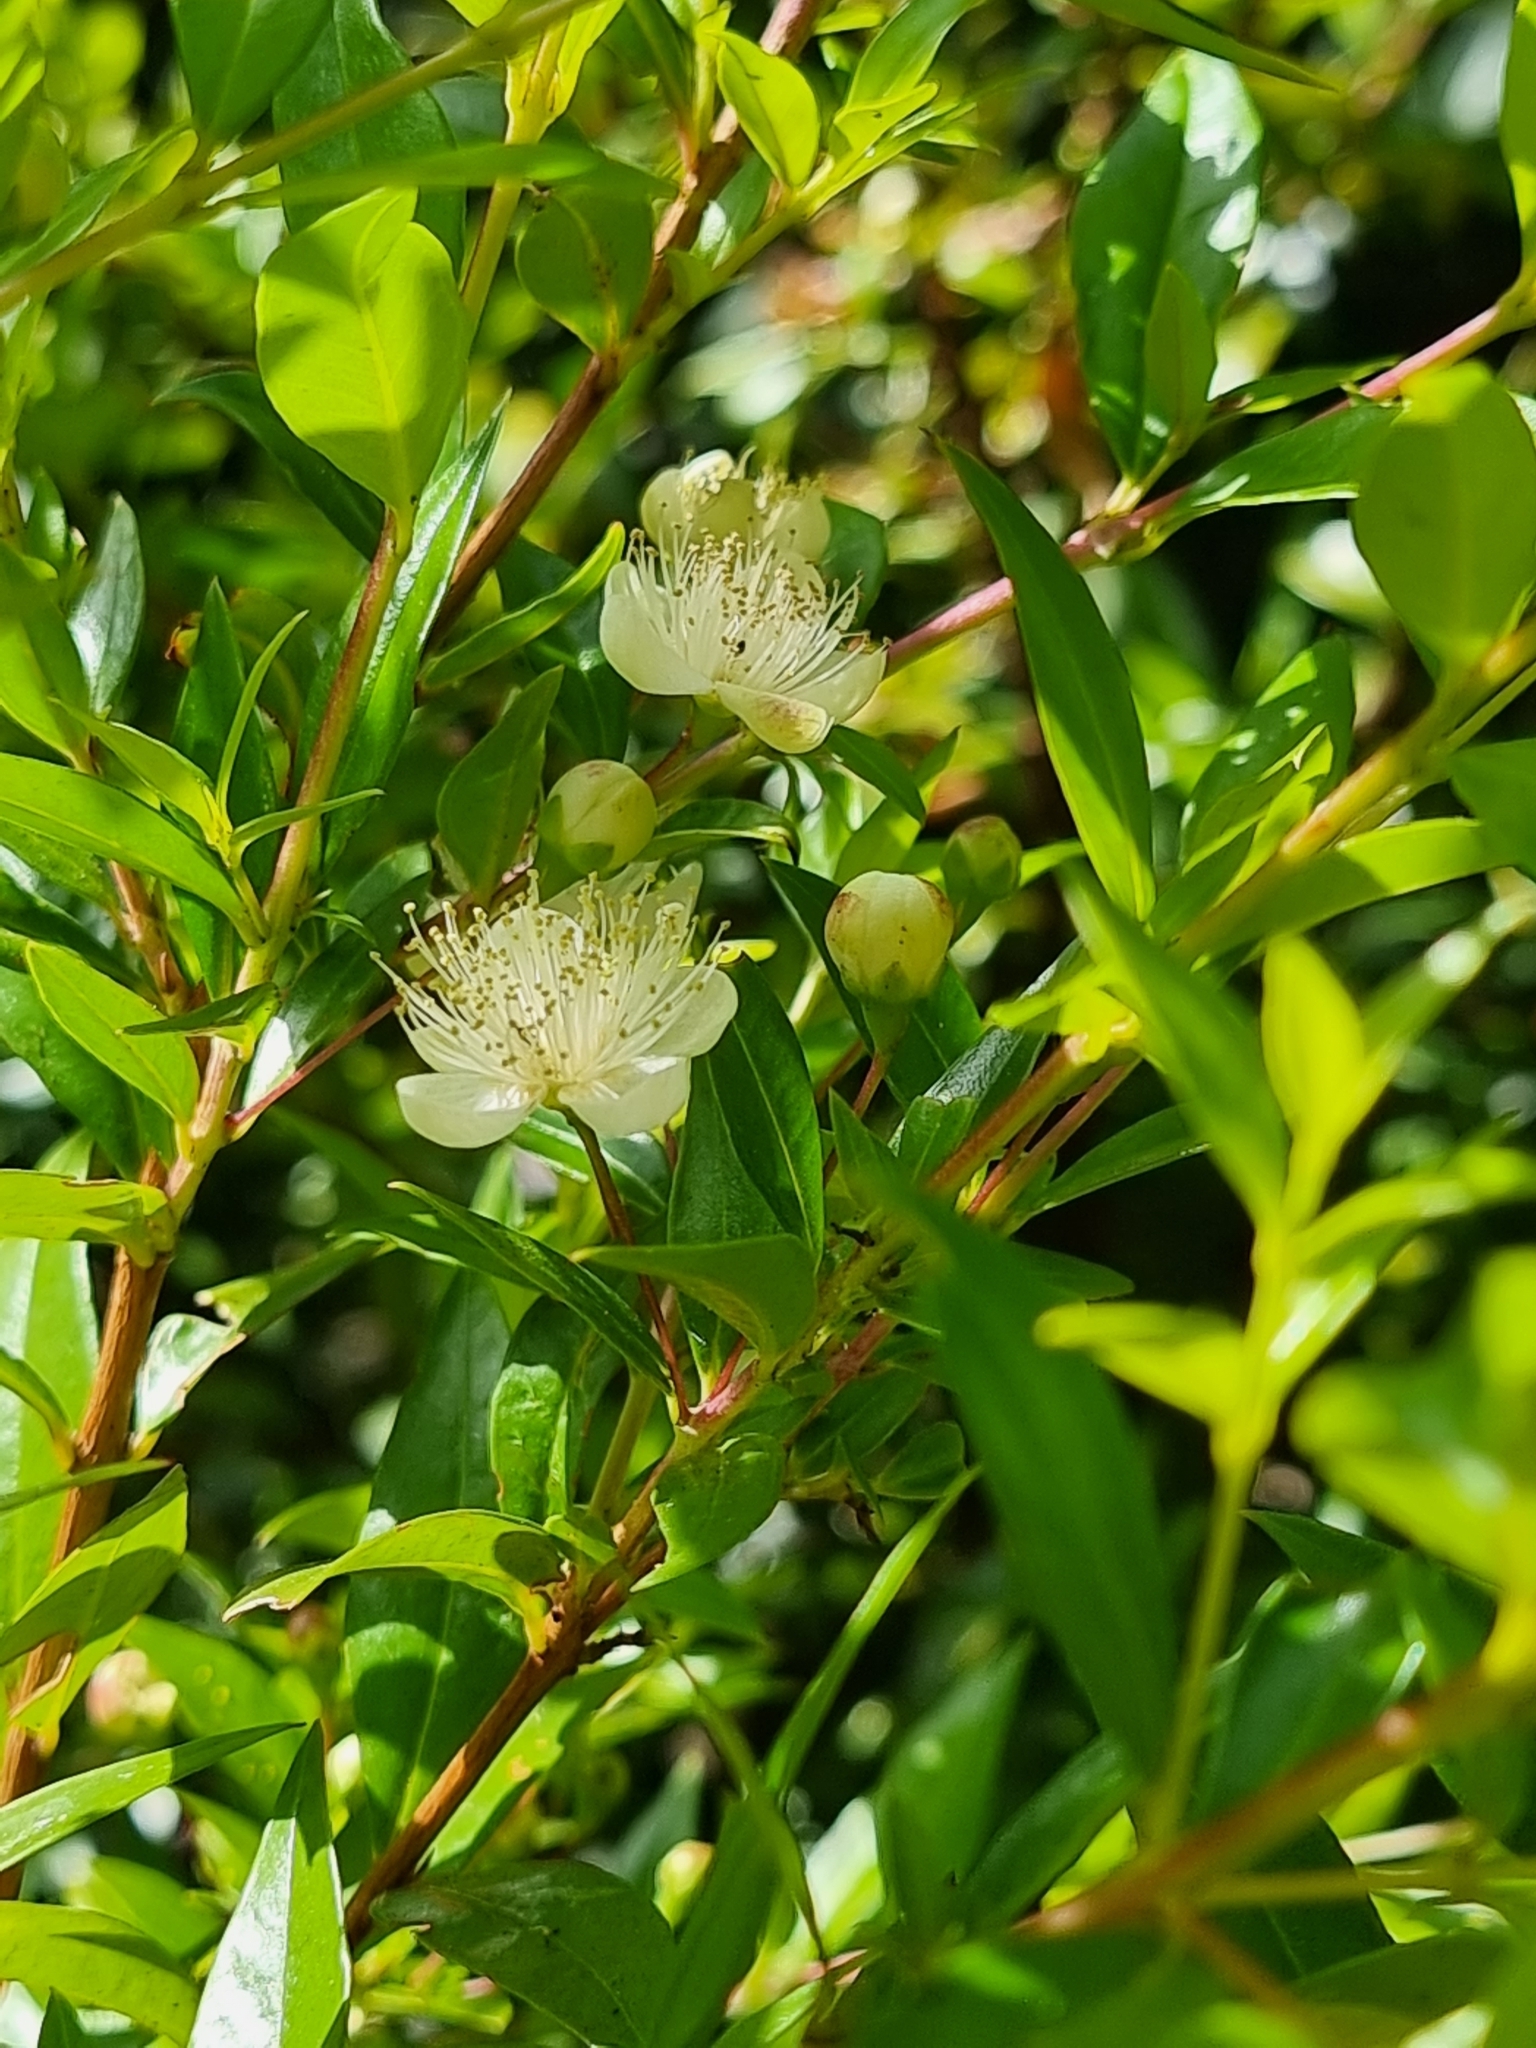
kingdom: Plantae
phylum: Tracheophyta
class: Magnoliopsida
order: Myrtales
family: Myrtaceae
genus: Myrtus
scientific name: Myrtus communis
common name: Myrtle
